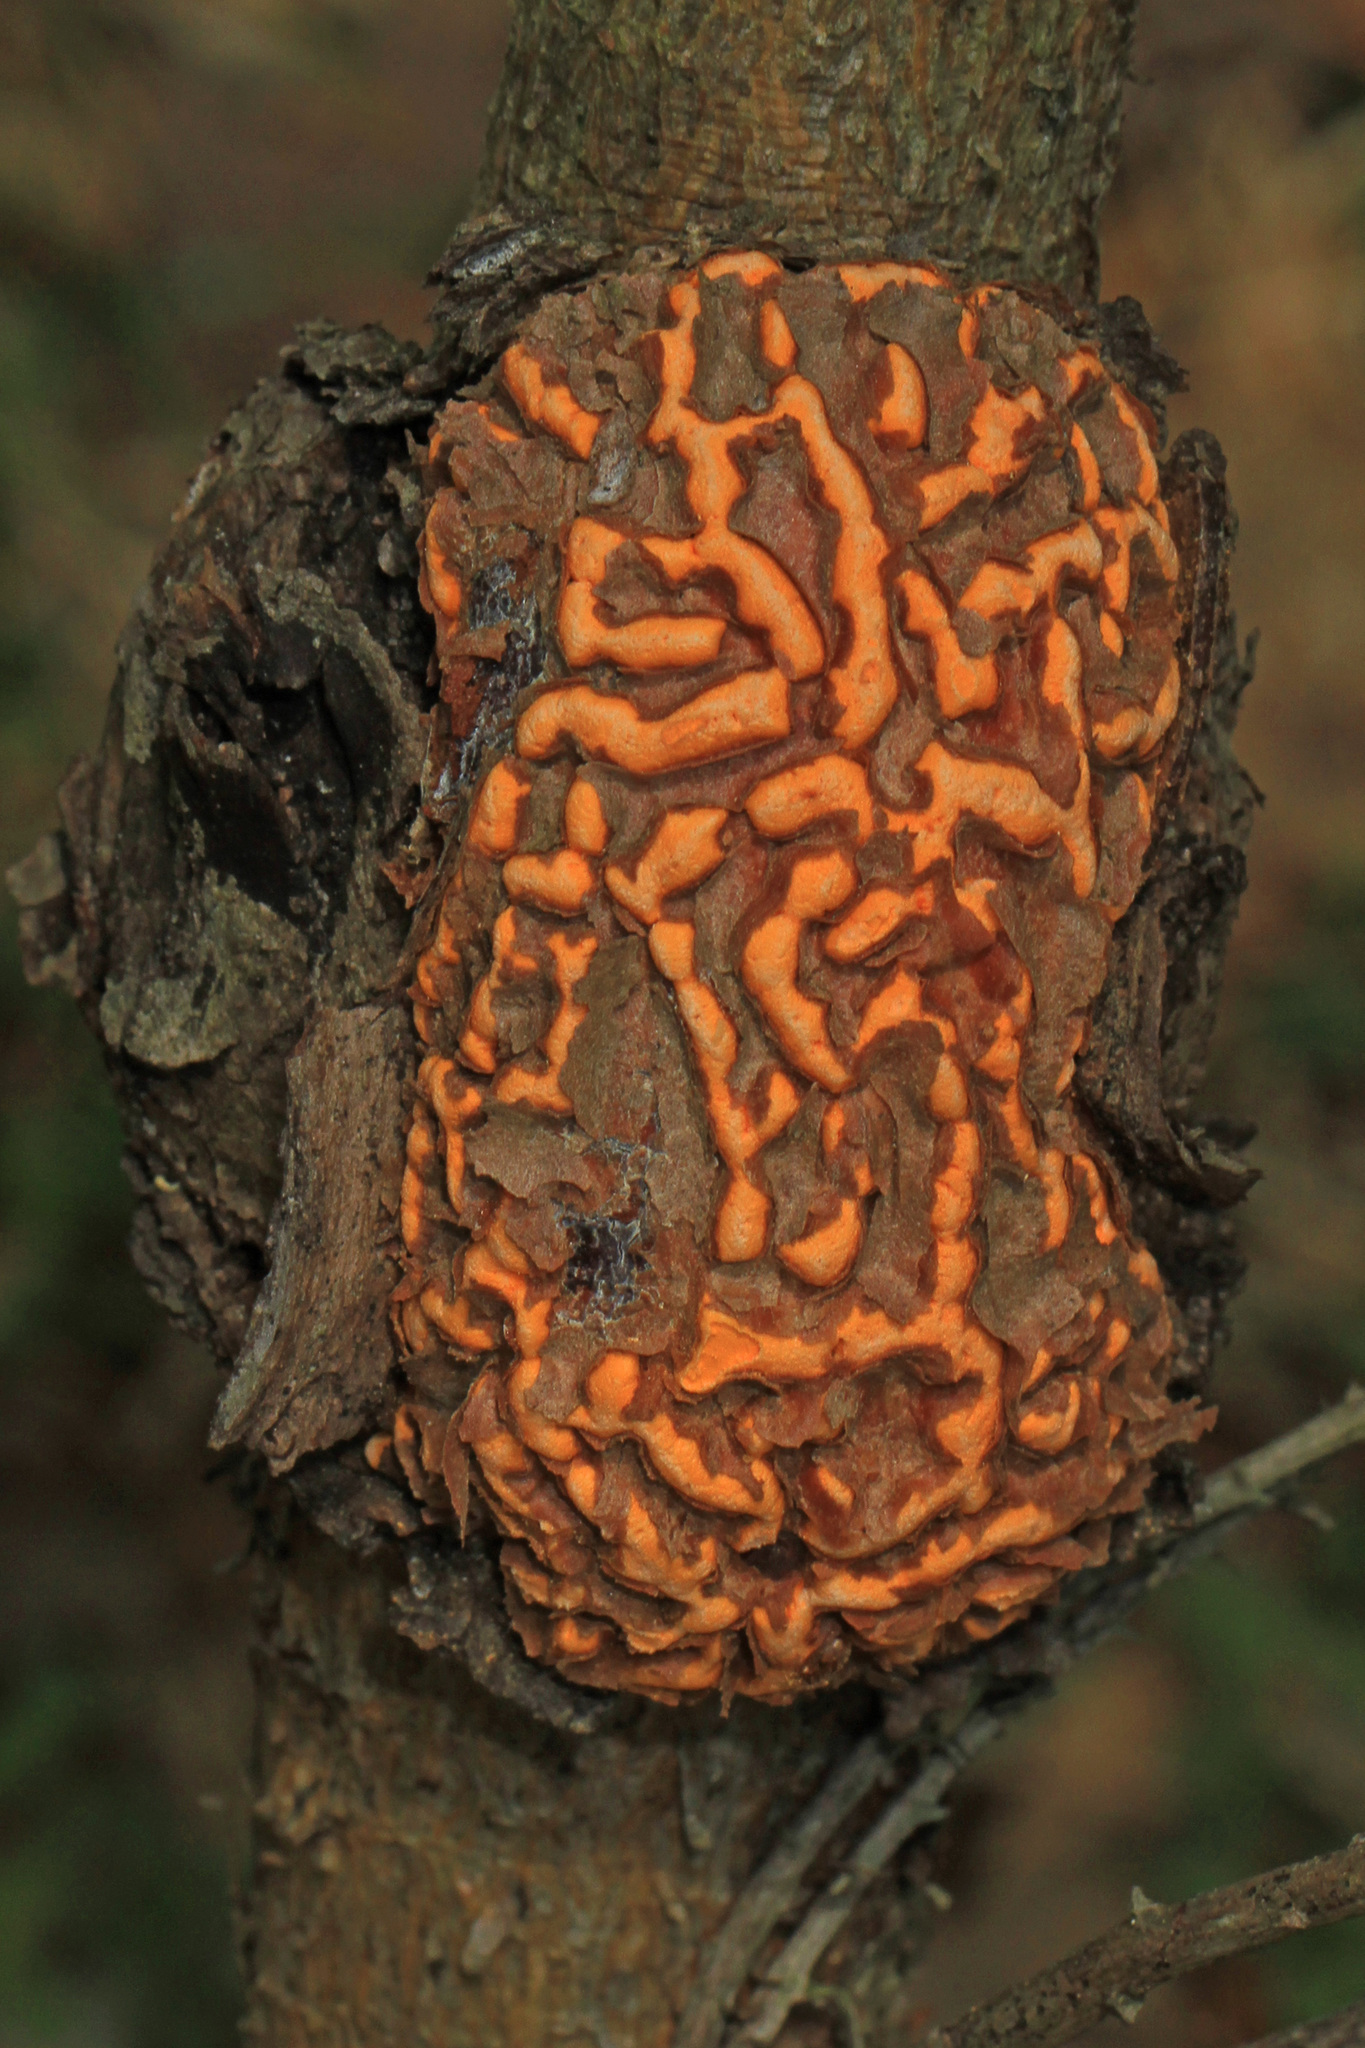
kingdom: Fungi
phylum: Basidiomycota
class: Pucciniomycetes
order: Pucciniales
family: Cronartiaceae
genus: Cronartium
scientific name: Cronartium quercuum
